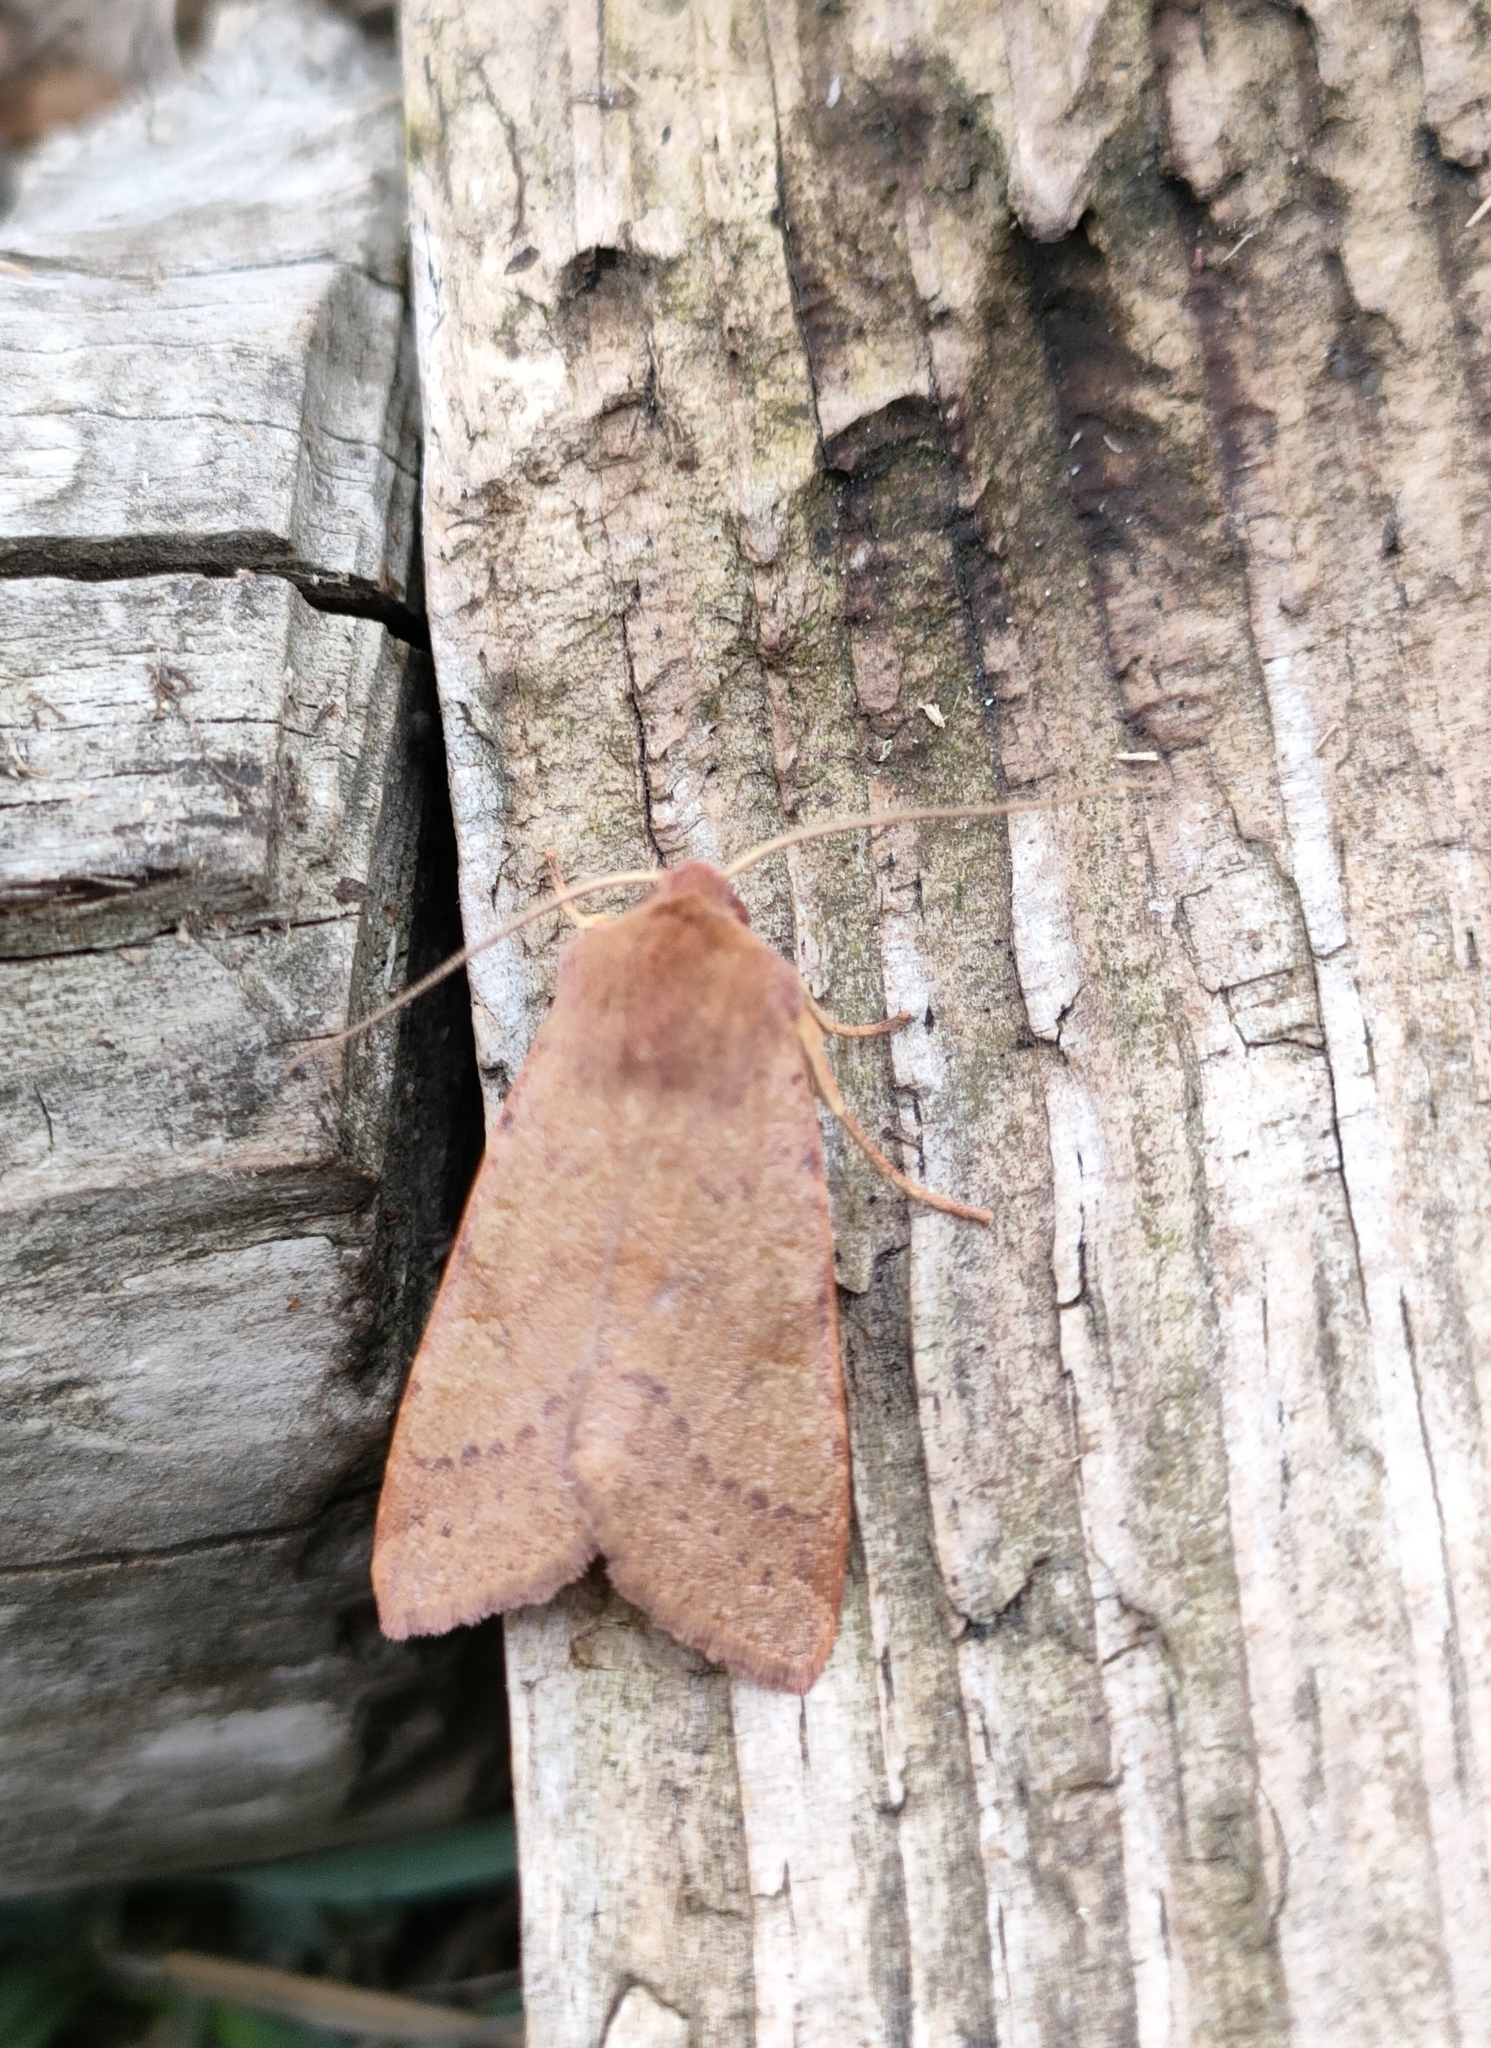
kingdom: Animalia
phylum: Arthropoda
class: Insecta
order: Lepidoptera
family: Noctuidae
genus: Agrochola
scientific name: Agrochola helvola
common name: Flounced chestnut
